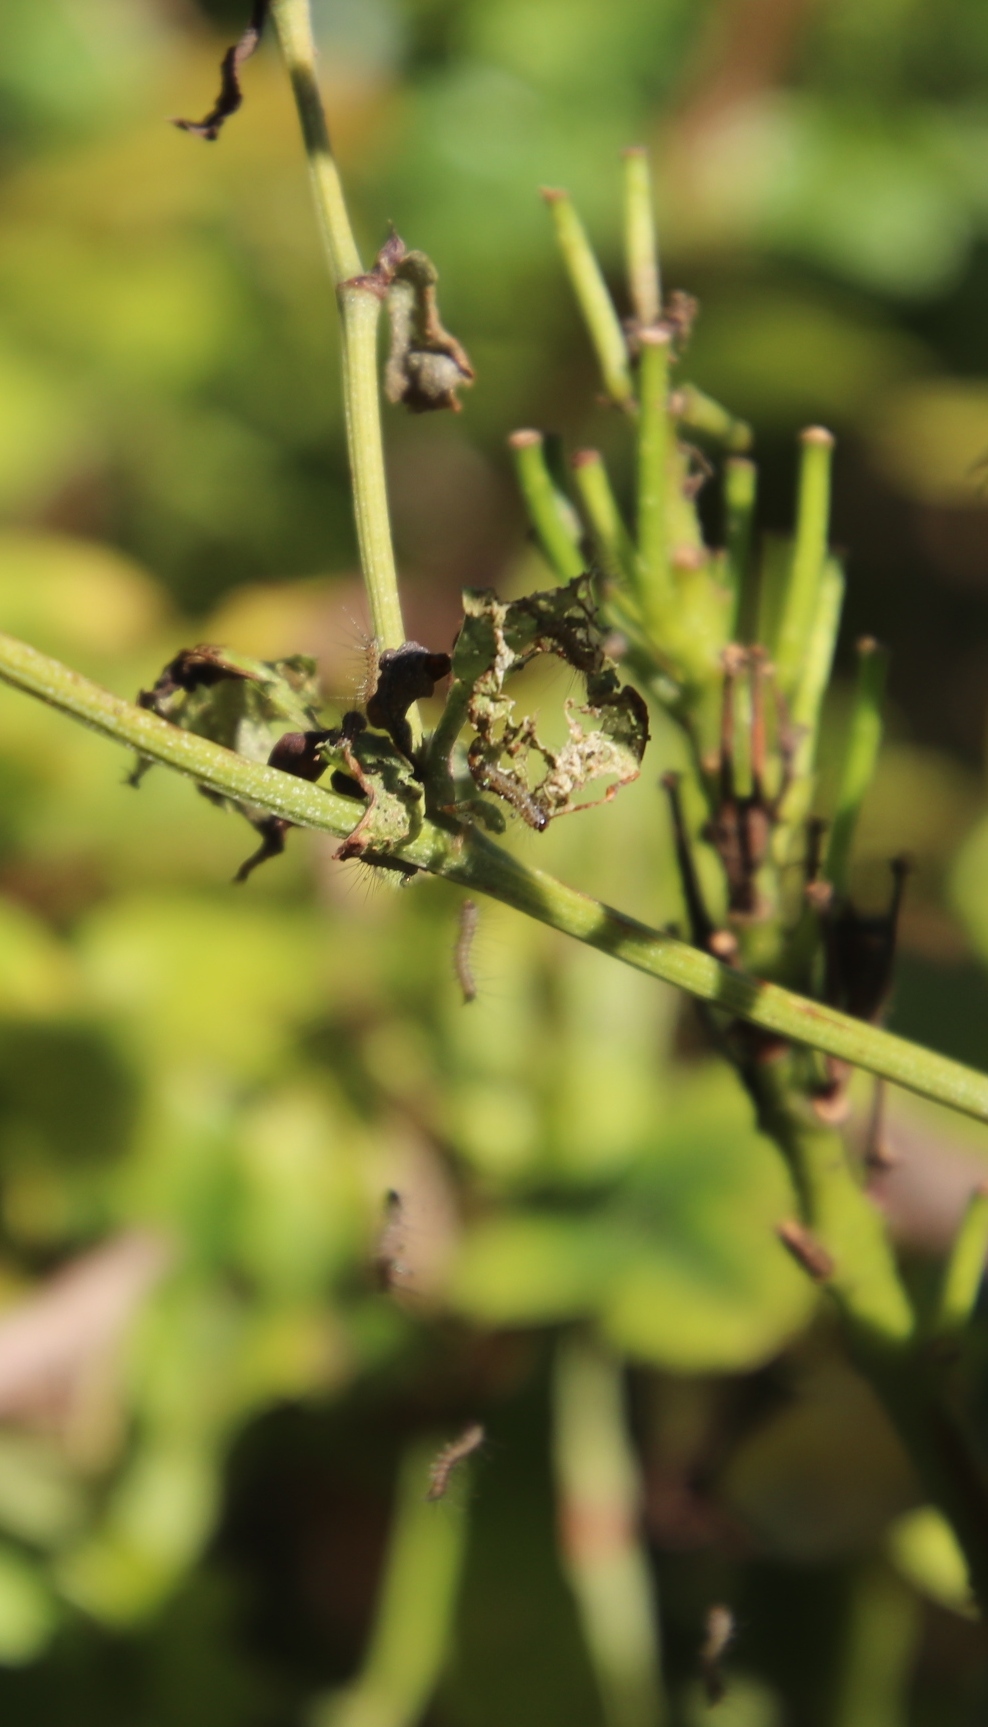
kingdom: Animalia
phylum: Arthropoda
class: Insecta
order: Lepidoptera
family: Erebidae
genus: Rhodogastria
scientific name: Rhodogastria amasis
